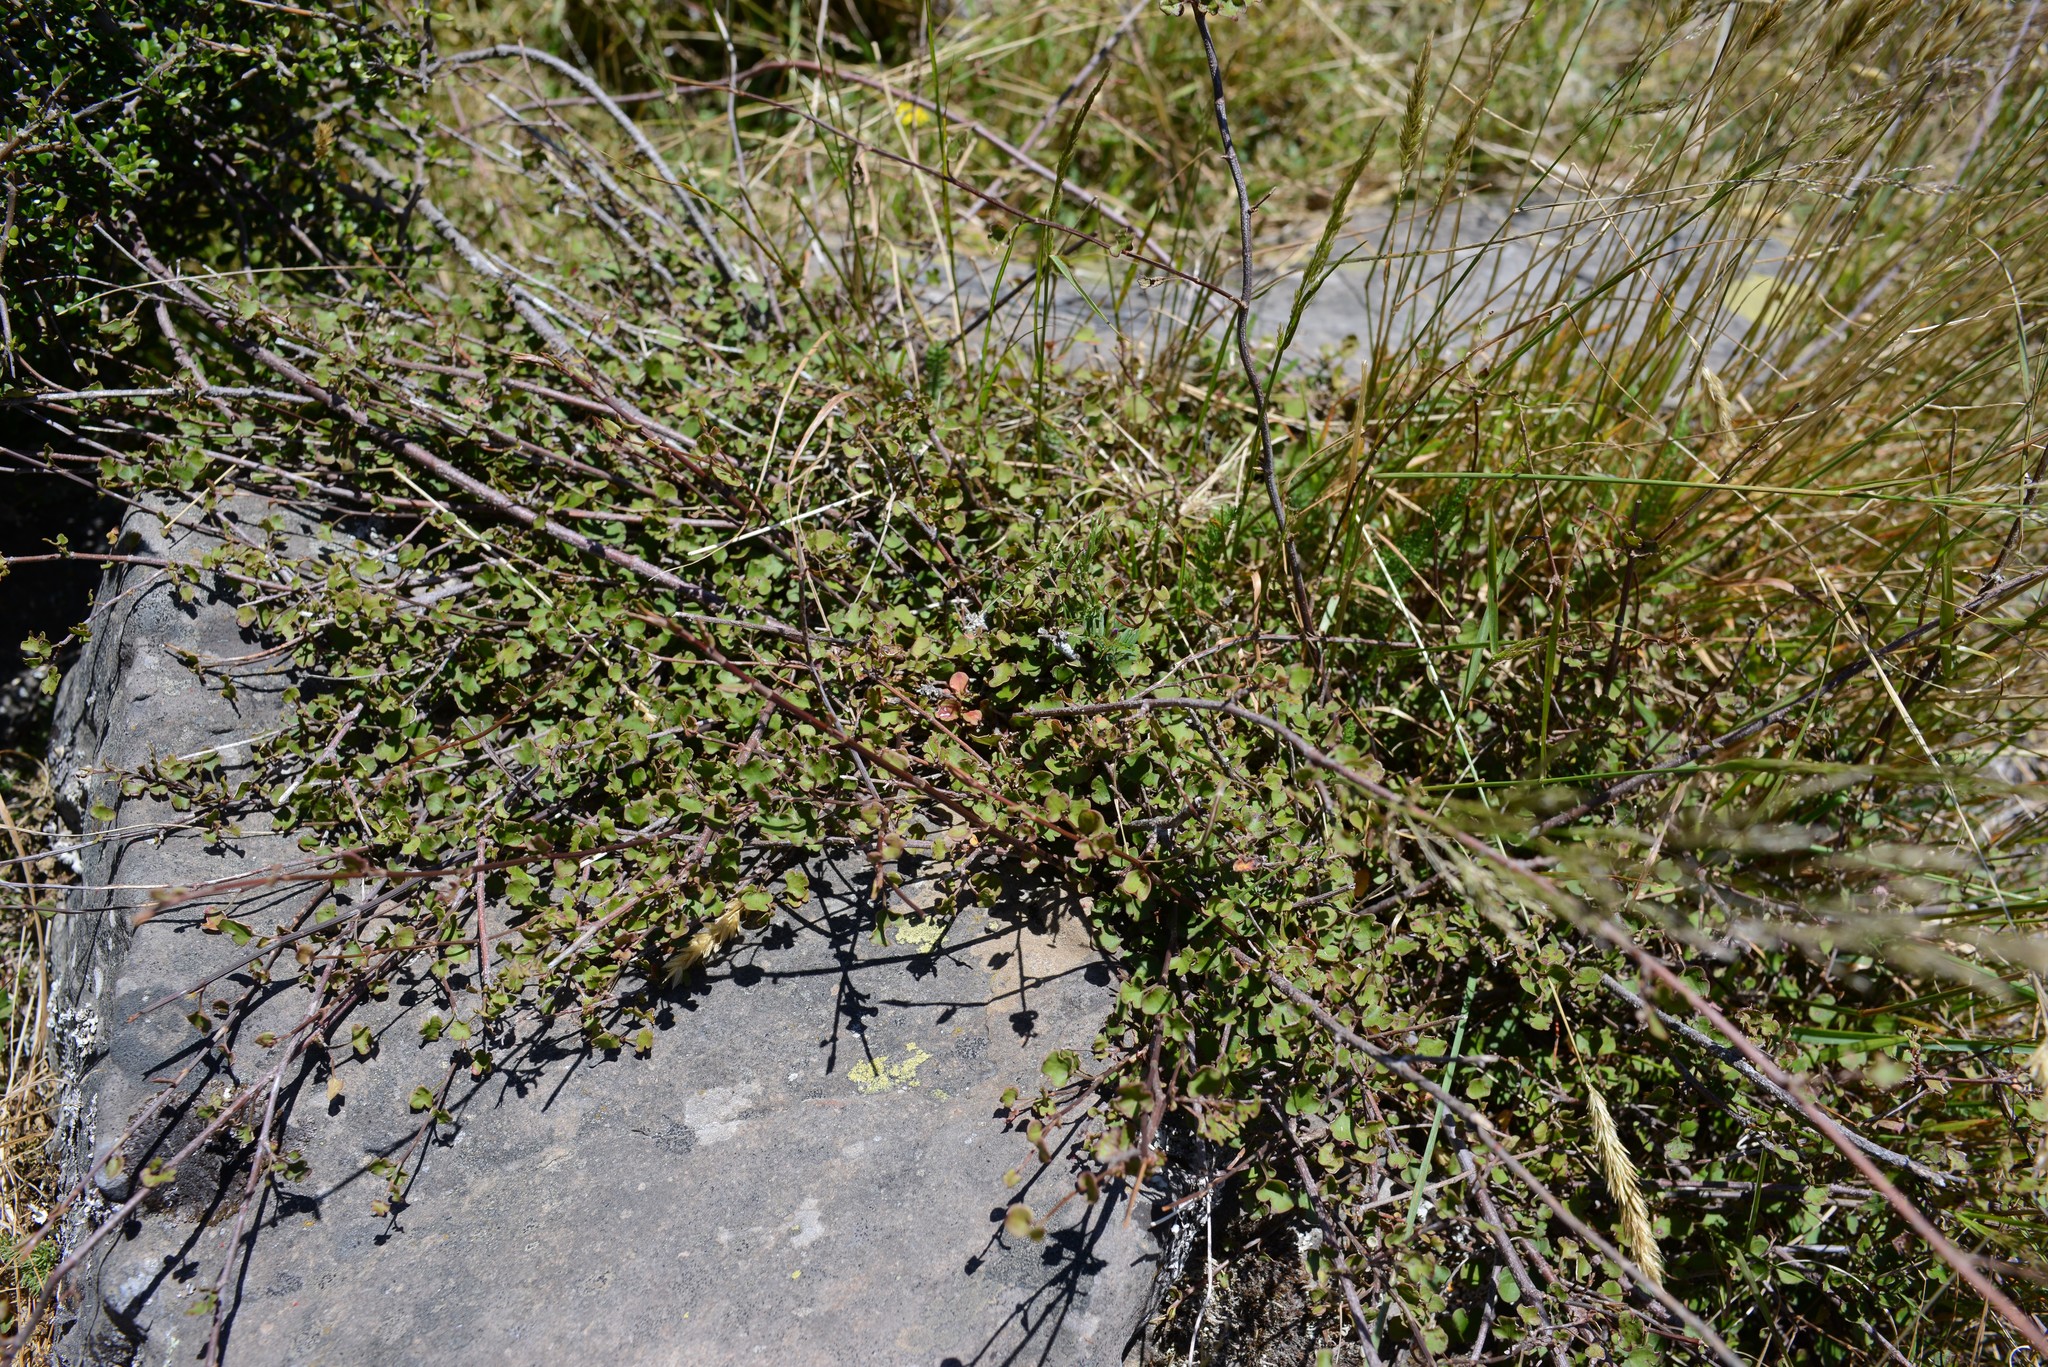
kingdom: Plantae
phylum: Tracheophyta
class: Magnoliopsida
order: Caryophyllales
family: Polygonaceae
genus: Muehlenbeckia
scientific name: Muehlenbeckia australis
